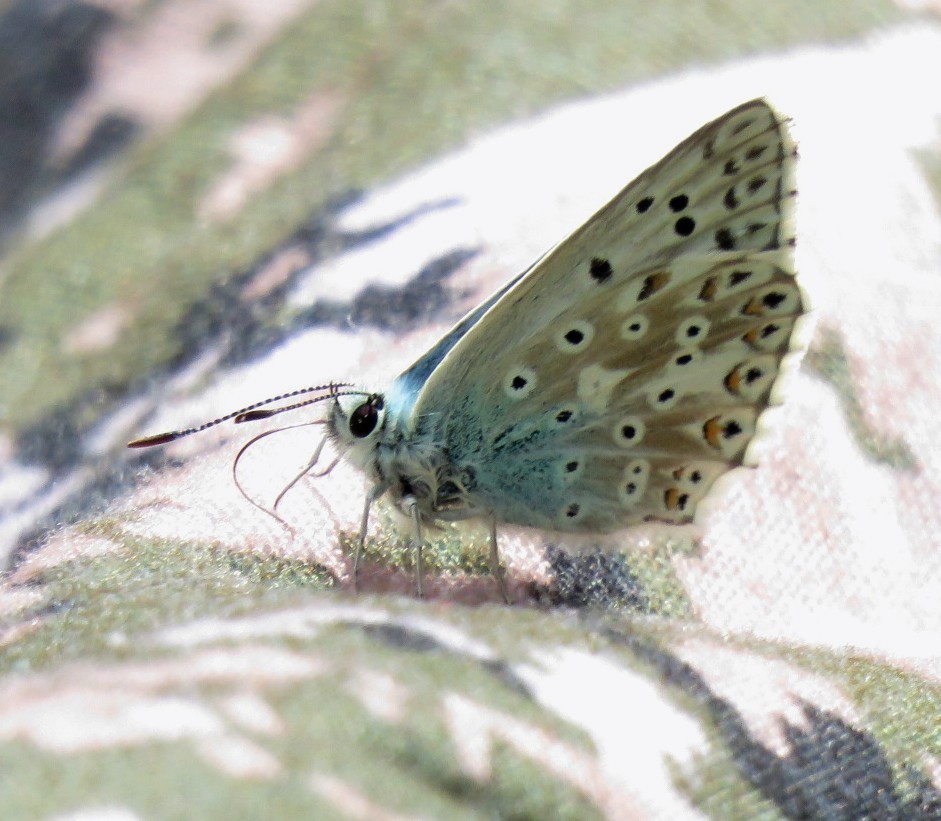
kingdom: Animalia
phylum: Arthropoda
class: Insecta
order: Lepidoptera
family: Lycaenidae
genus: Lysandra
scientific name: Lysandra coridon
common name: Chalkhill blue
